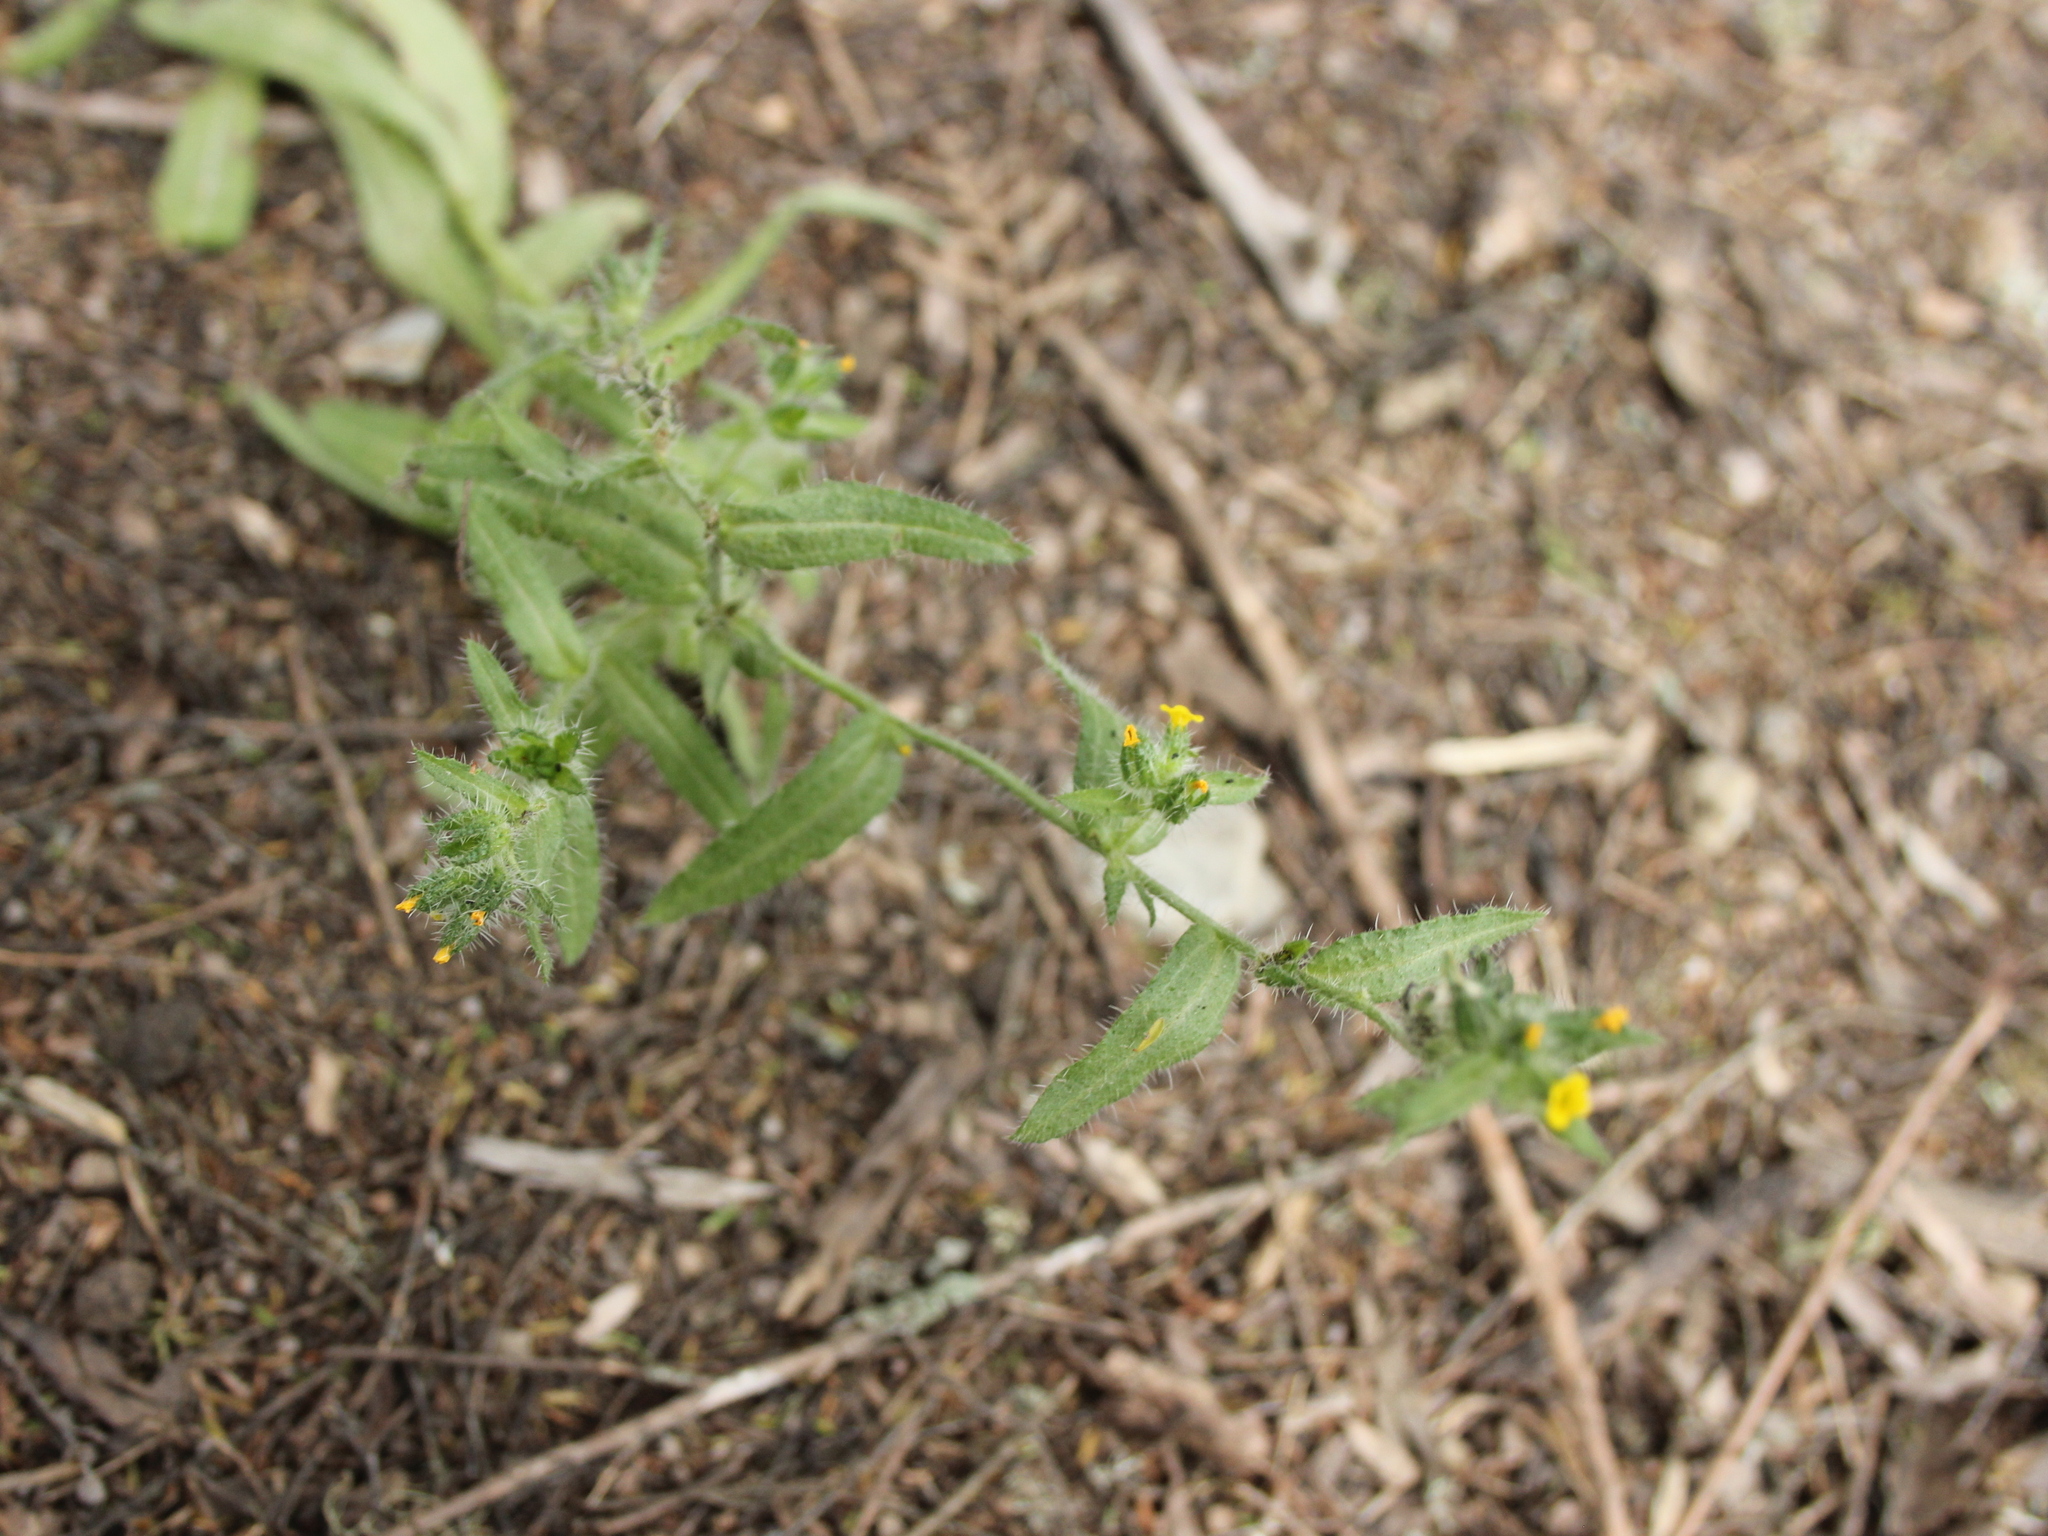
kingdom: Plantae
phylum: Tracheophyta
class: Magnoliopsida
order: Boraginales
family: Boraginaceae
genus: Amsinckia
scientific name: Amsinckia calycina
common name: Hairy fiddleneck
